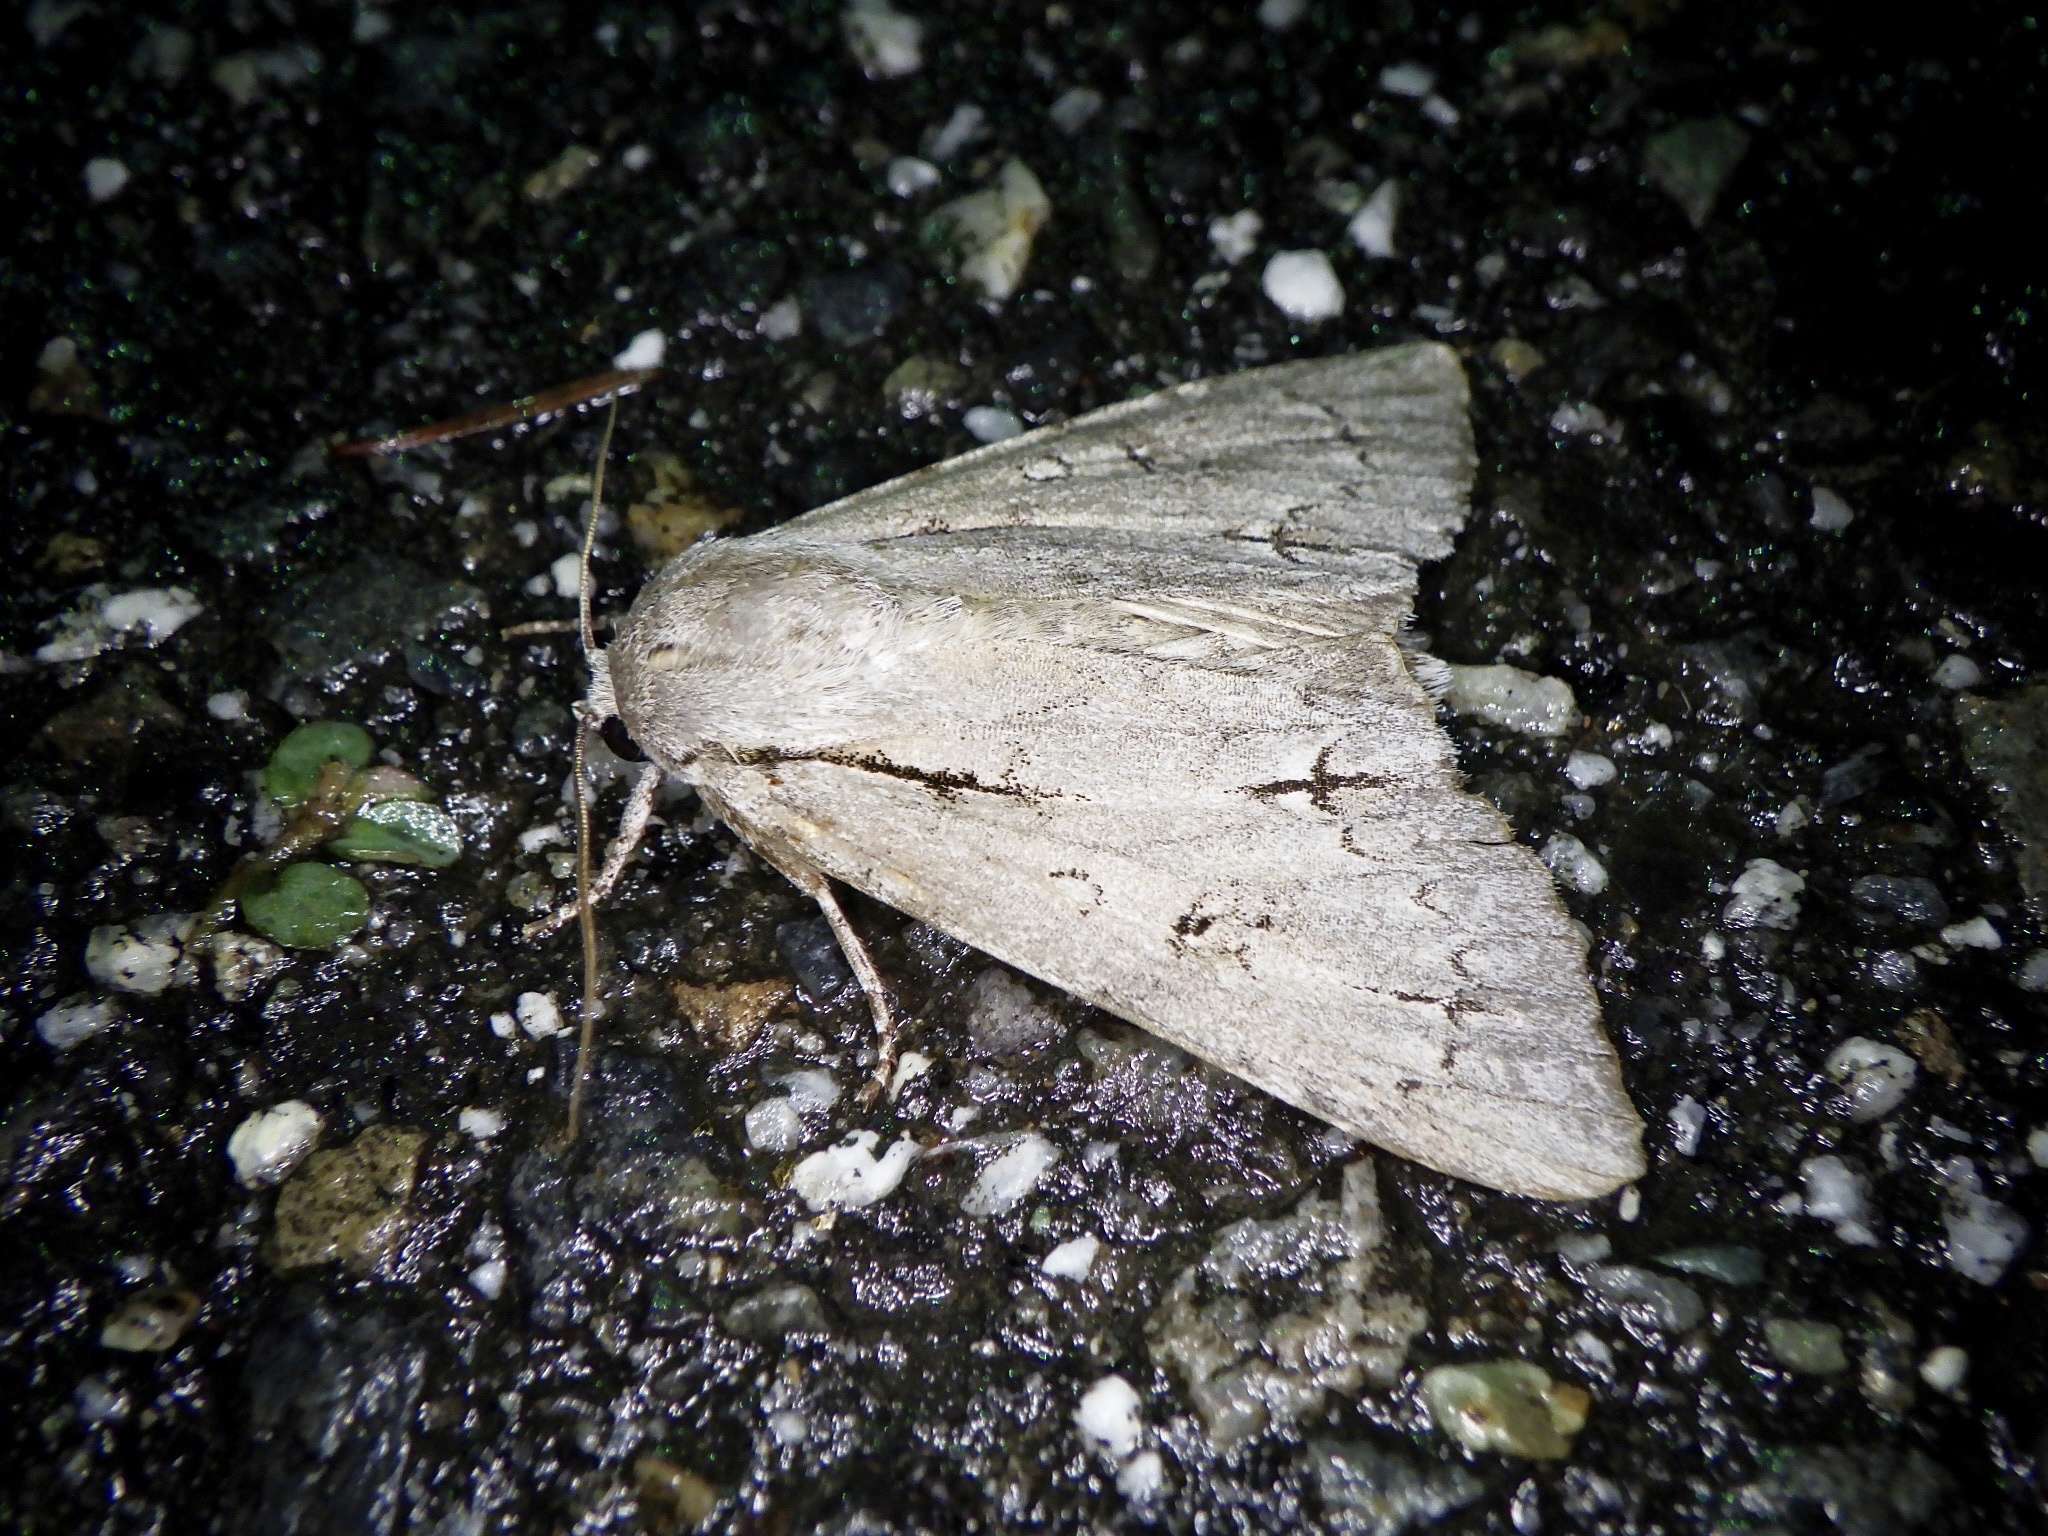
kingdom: Animalia
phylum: Arthropoda
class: Insecta
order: Lepidoptera
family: Noctuidae
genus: Acronicta
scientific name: Acronicta major
